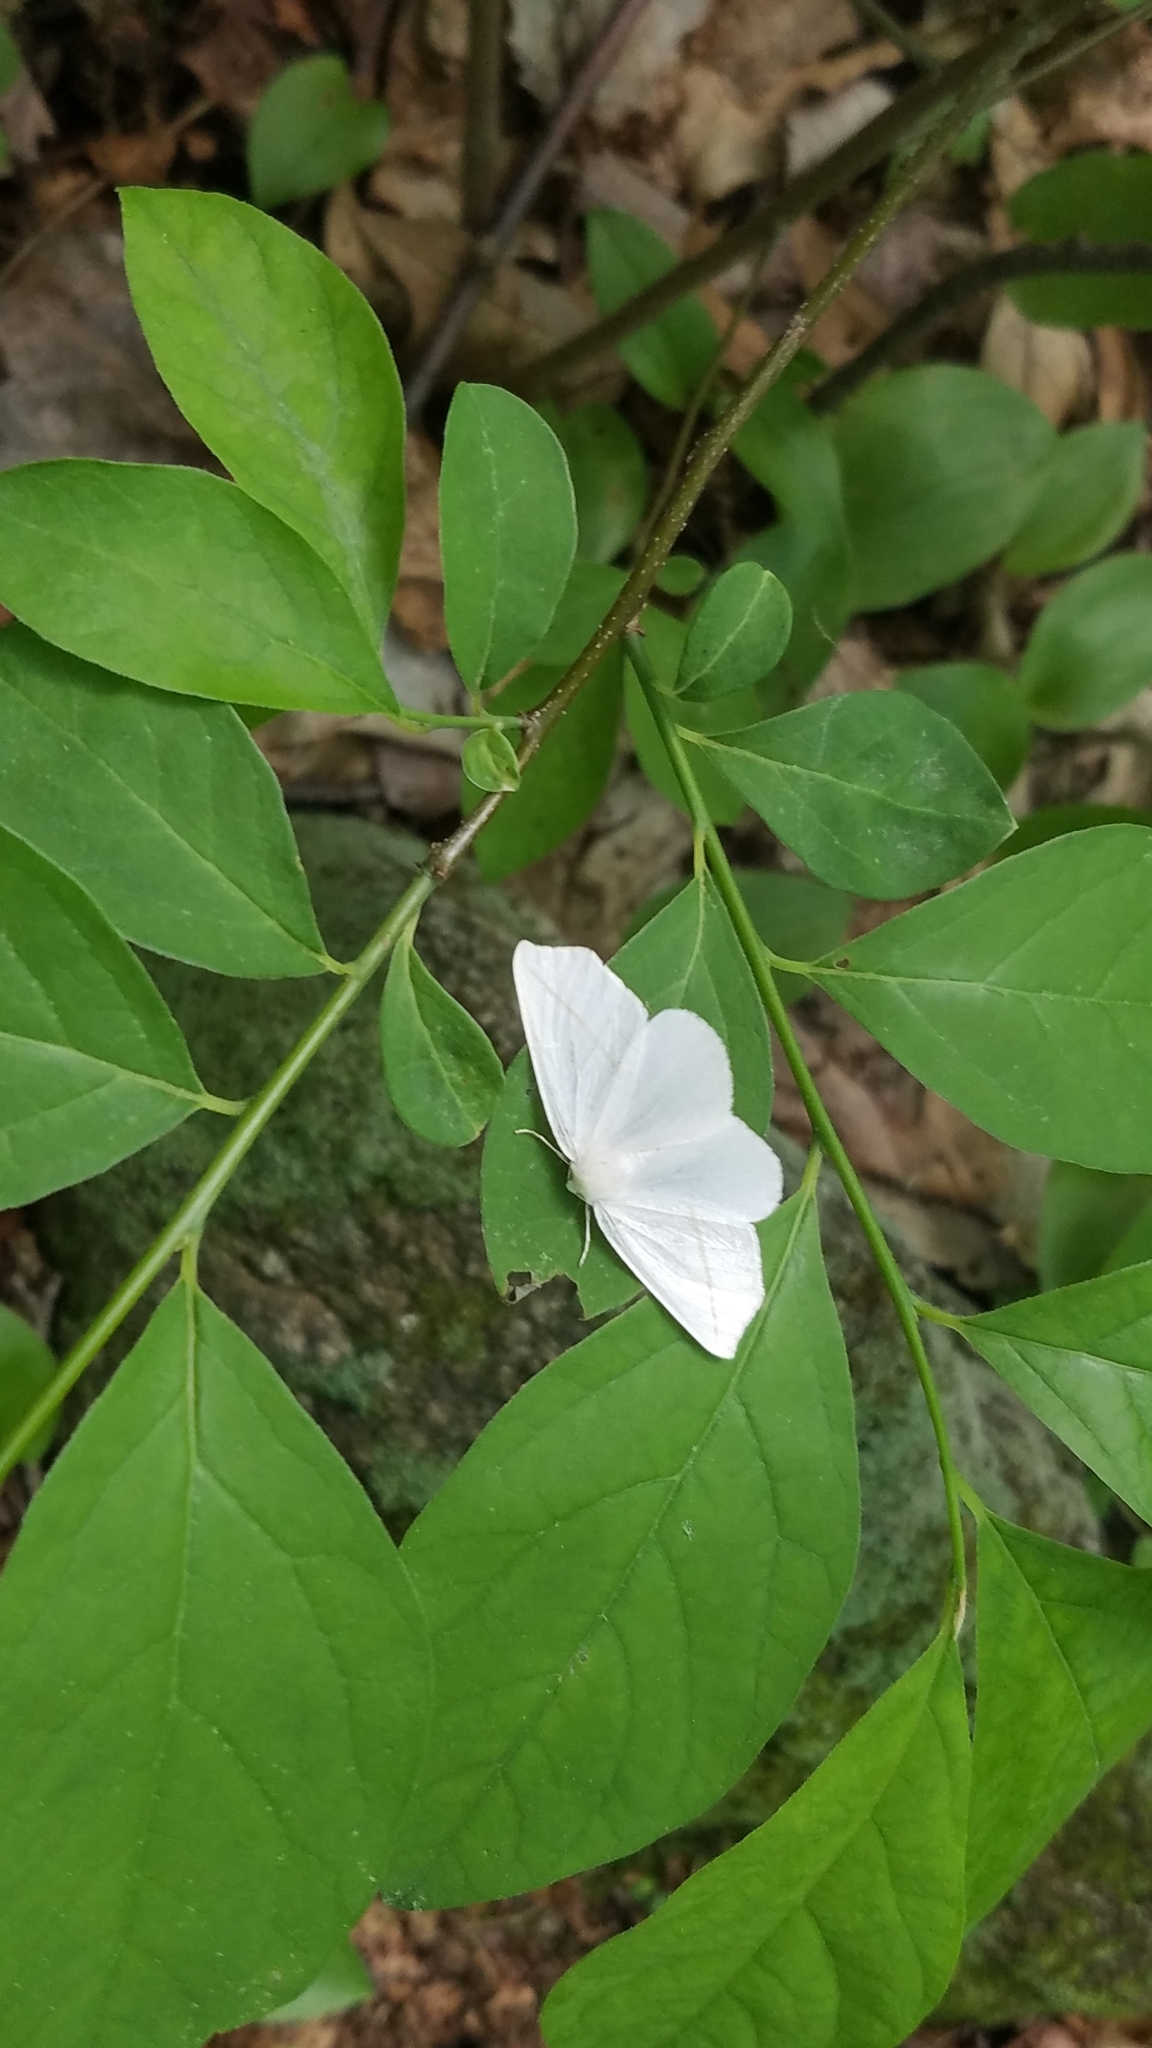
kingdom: Animalia
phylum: Arthropoda
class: Insecta
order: Lepidoptera
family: Geometridae
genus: Tetracis
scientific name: Tetracis cachexiata
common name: White slant-line
